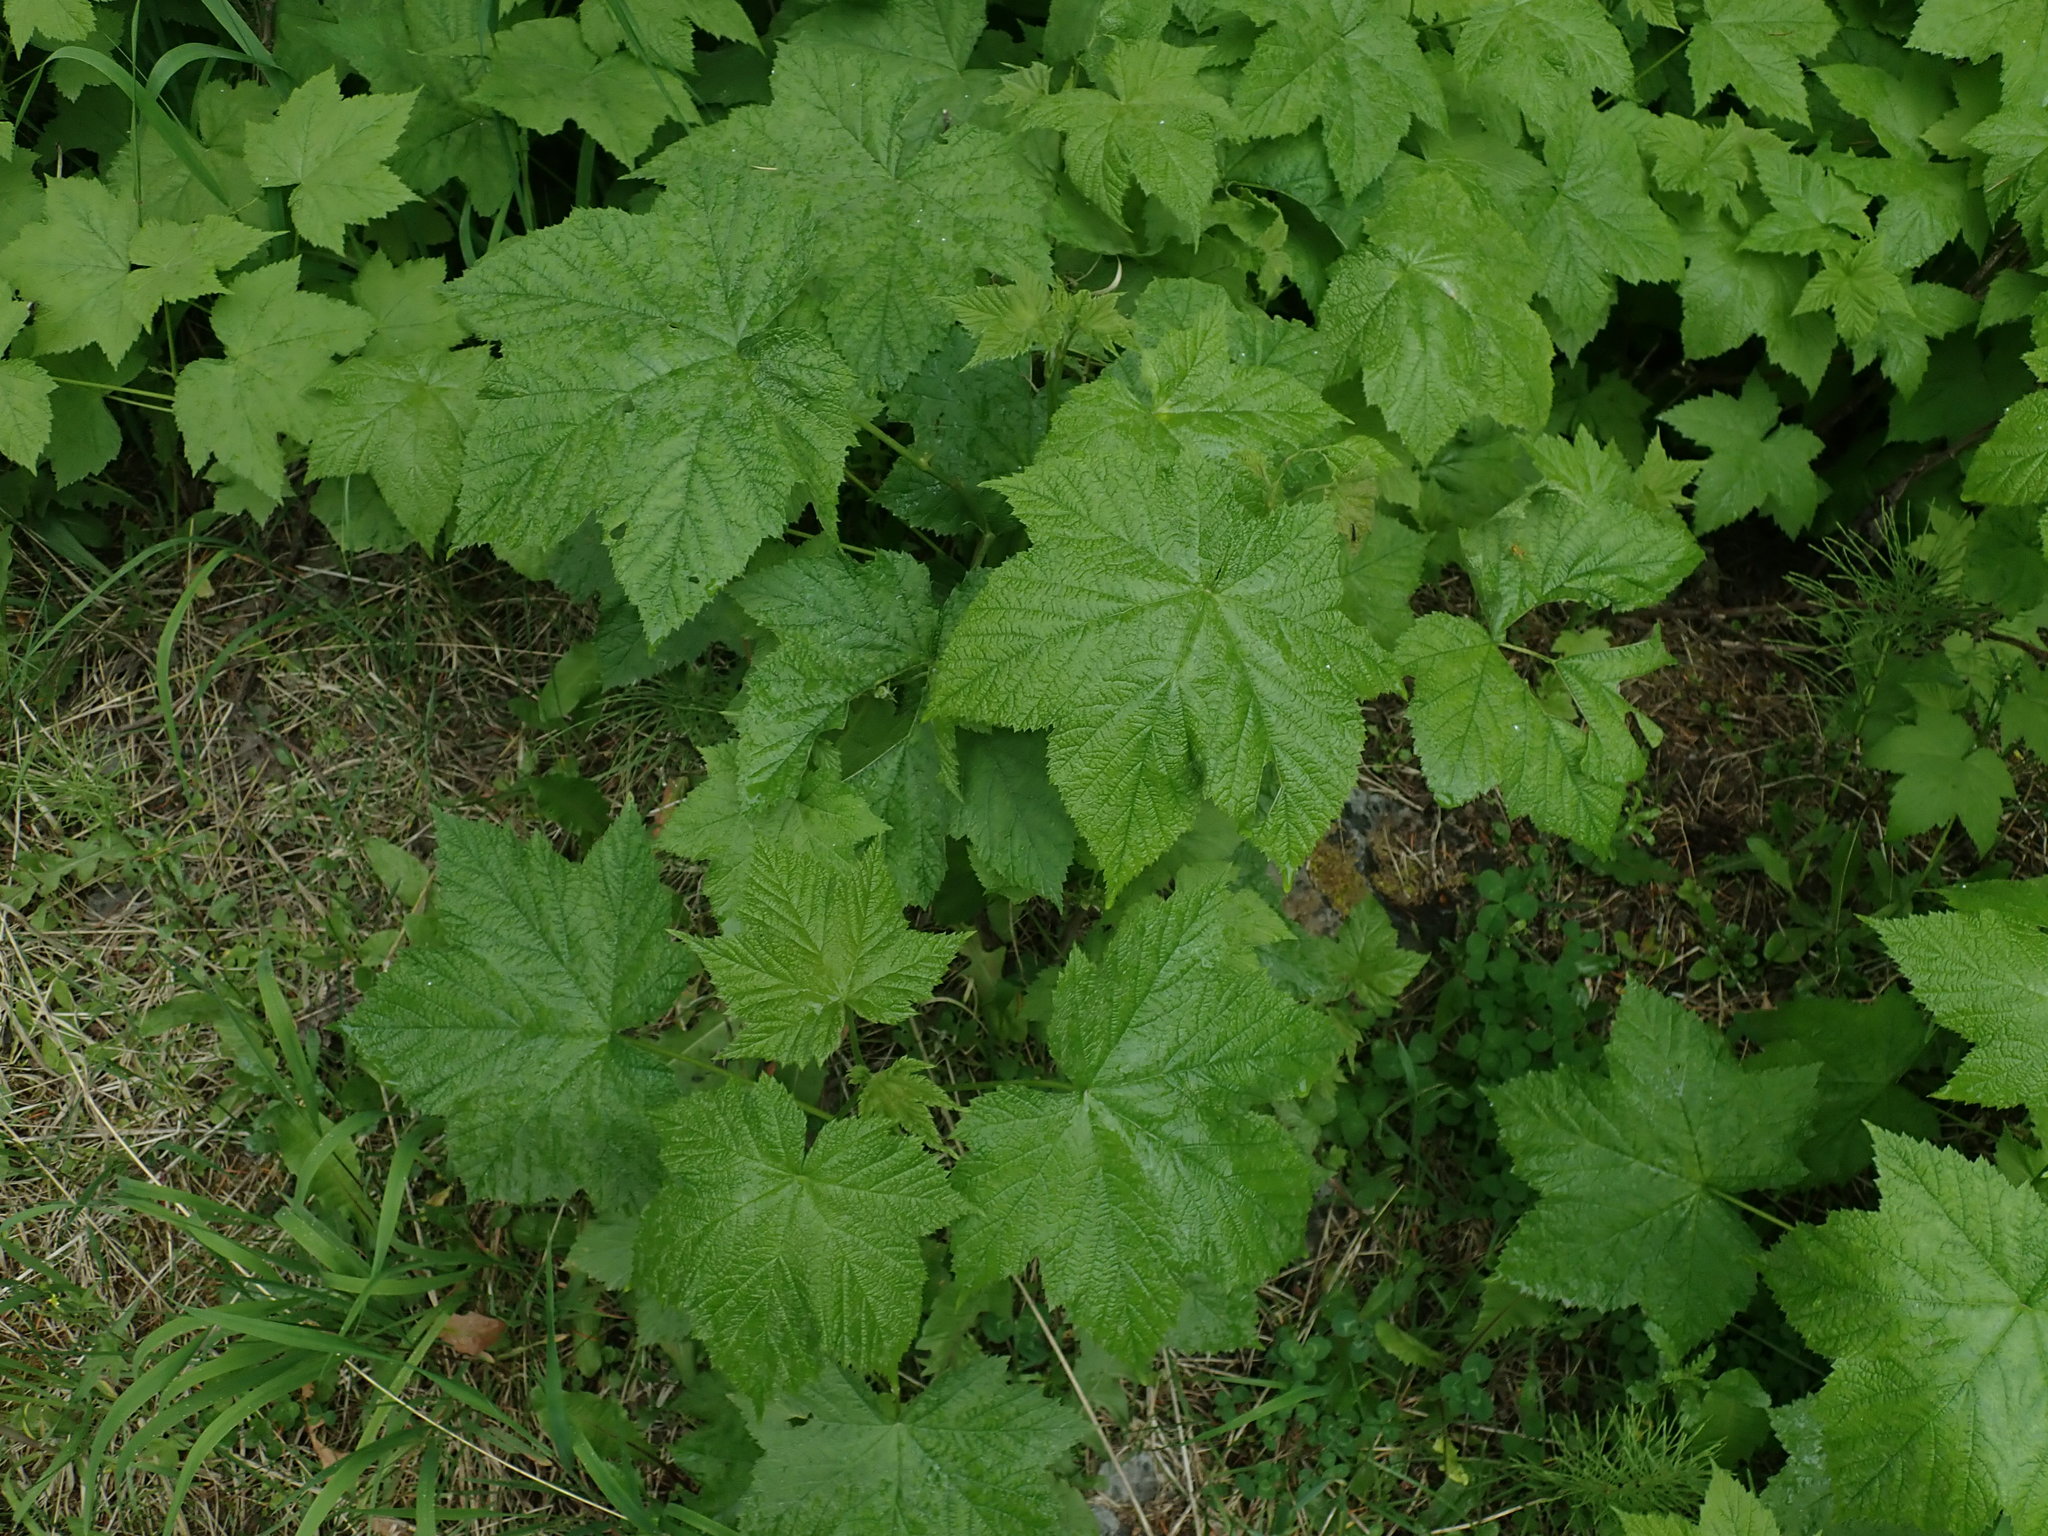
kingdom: Plantae
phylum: Tracheophyta
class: Magnoliopsida
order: Rosales
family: Rosaceae
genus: Rubus
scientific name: Rubus parviflorus
